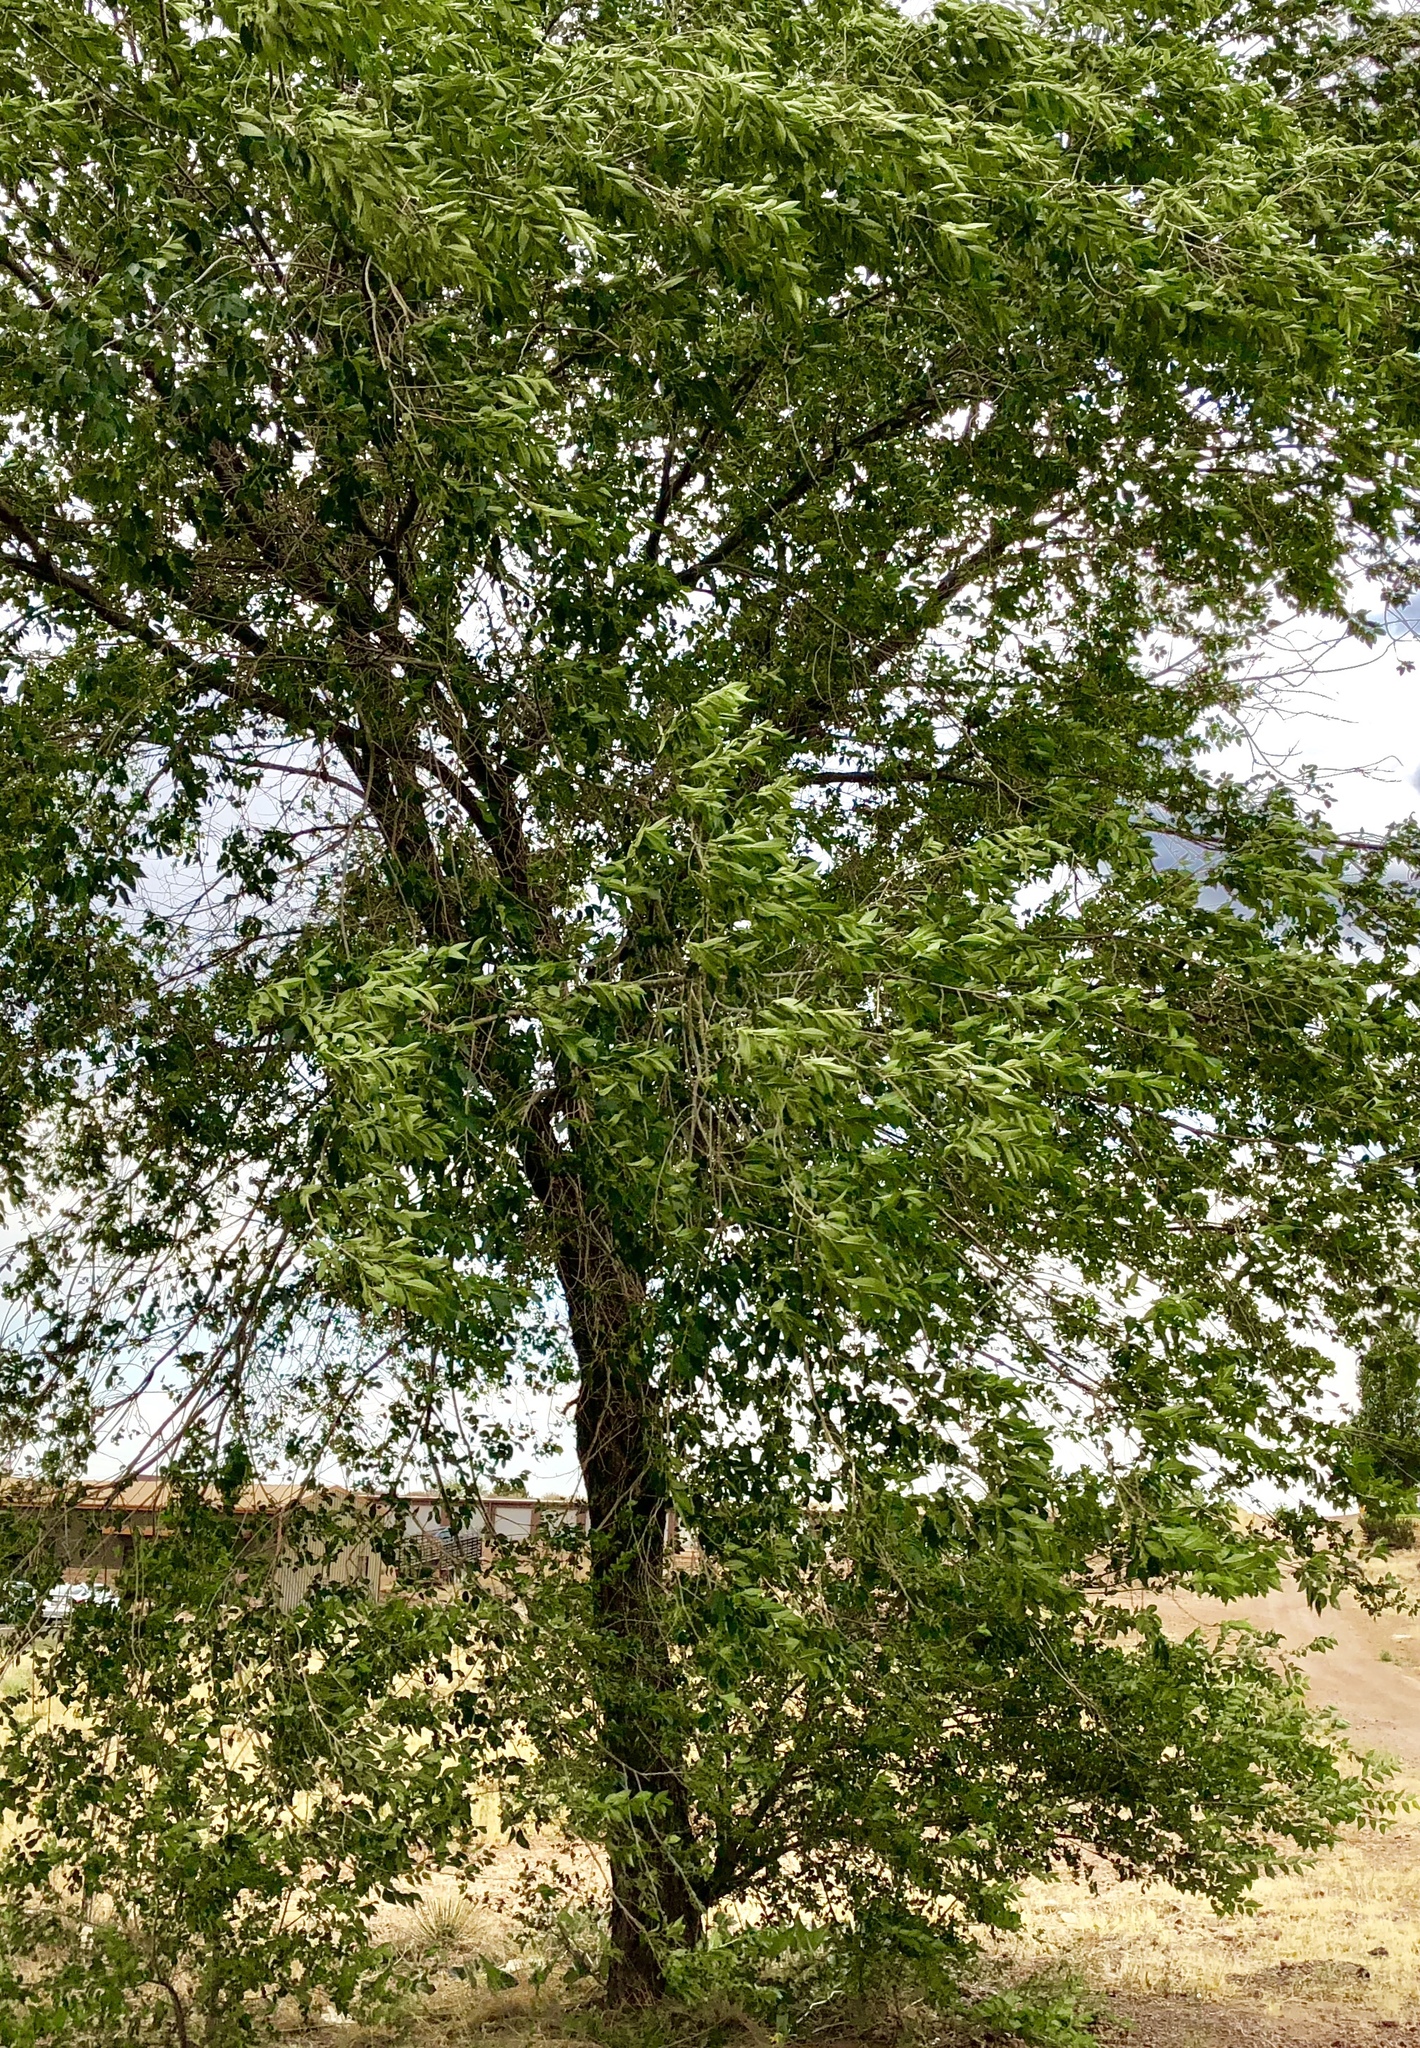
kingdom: Plantae
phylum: Tracheophyta
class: Magnoliopsida
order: Rosales
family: Ulmaceae
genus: Ulmus
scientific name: Ulmus pumila
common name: Siberian elm
